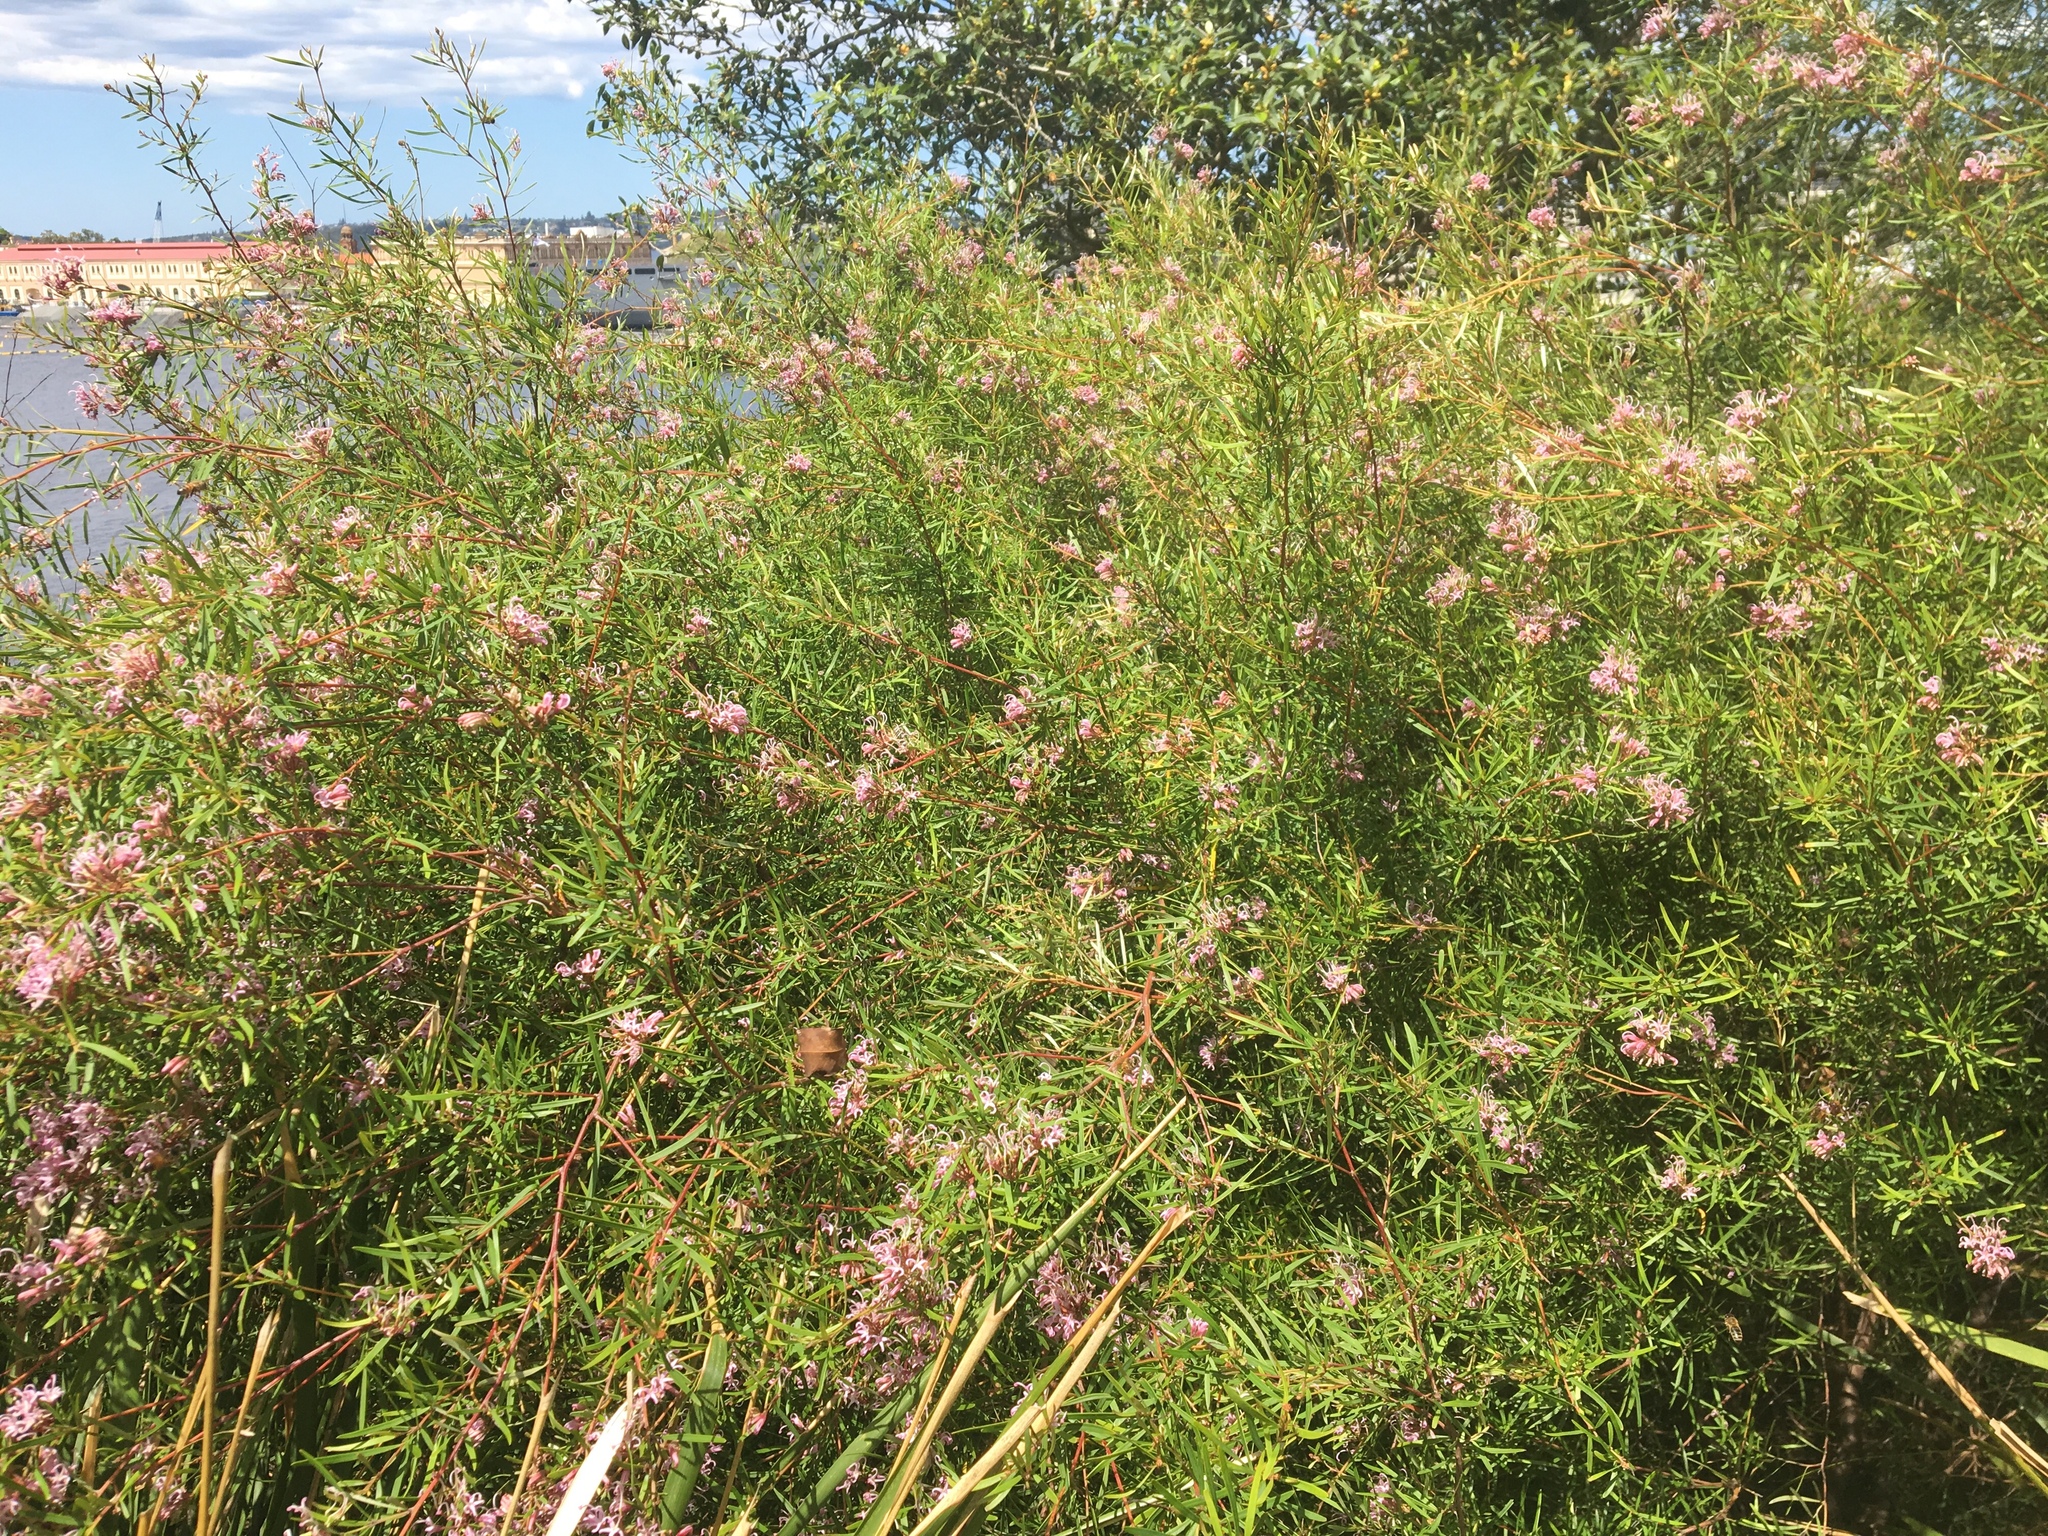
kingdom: Plantae
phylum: Tracheophyta
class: Magnoliopsida
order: Proteales
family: Proteaceae
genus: Grevillea
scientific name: Grevillea sericea
